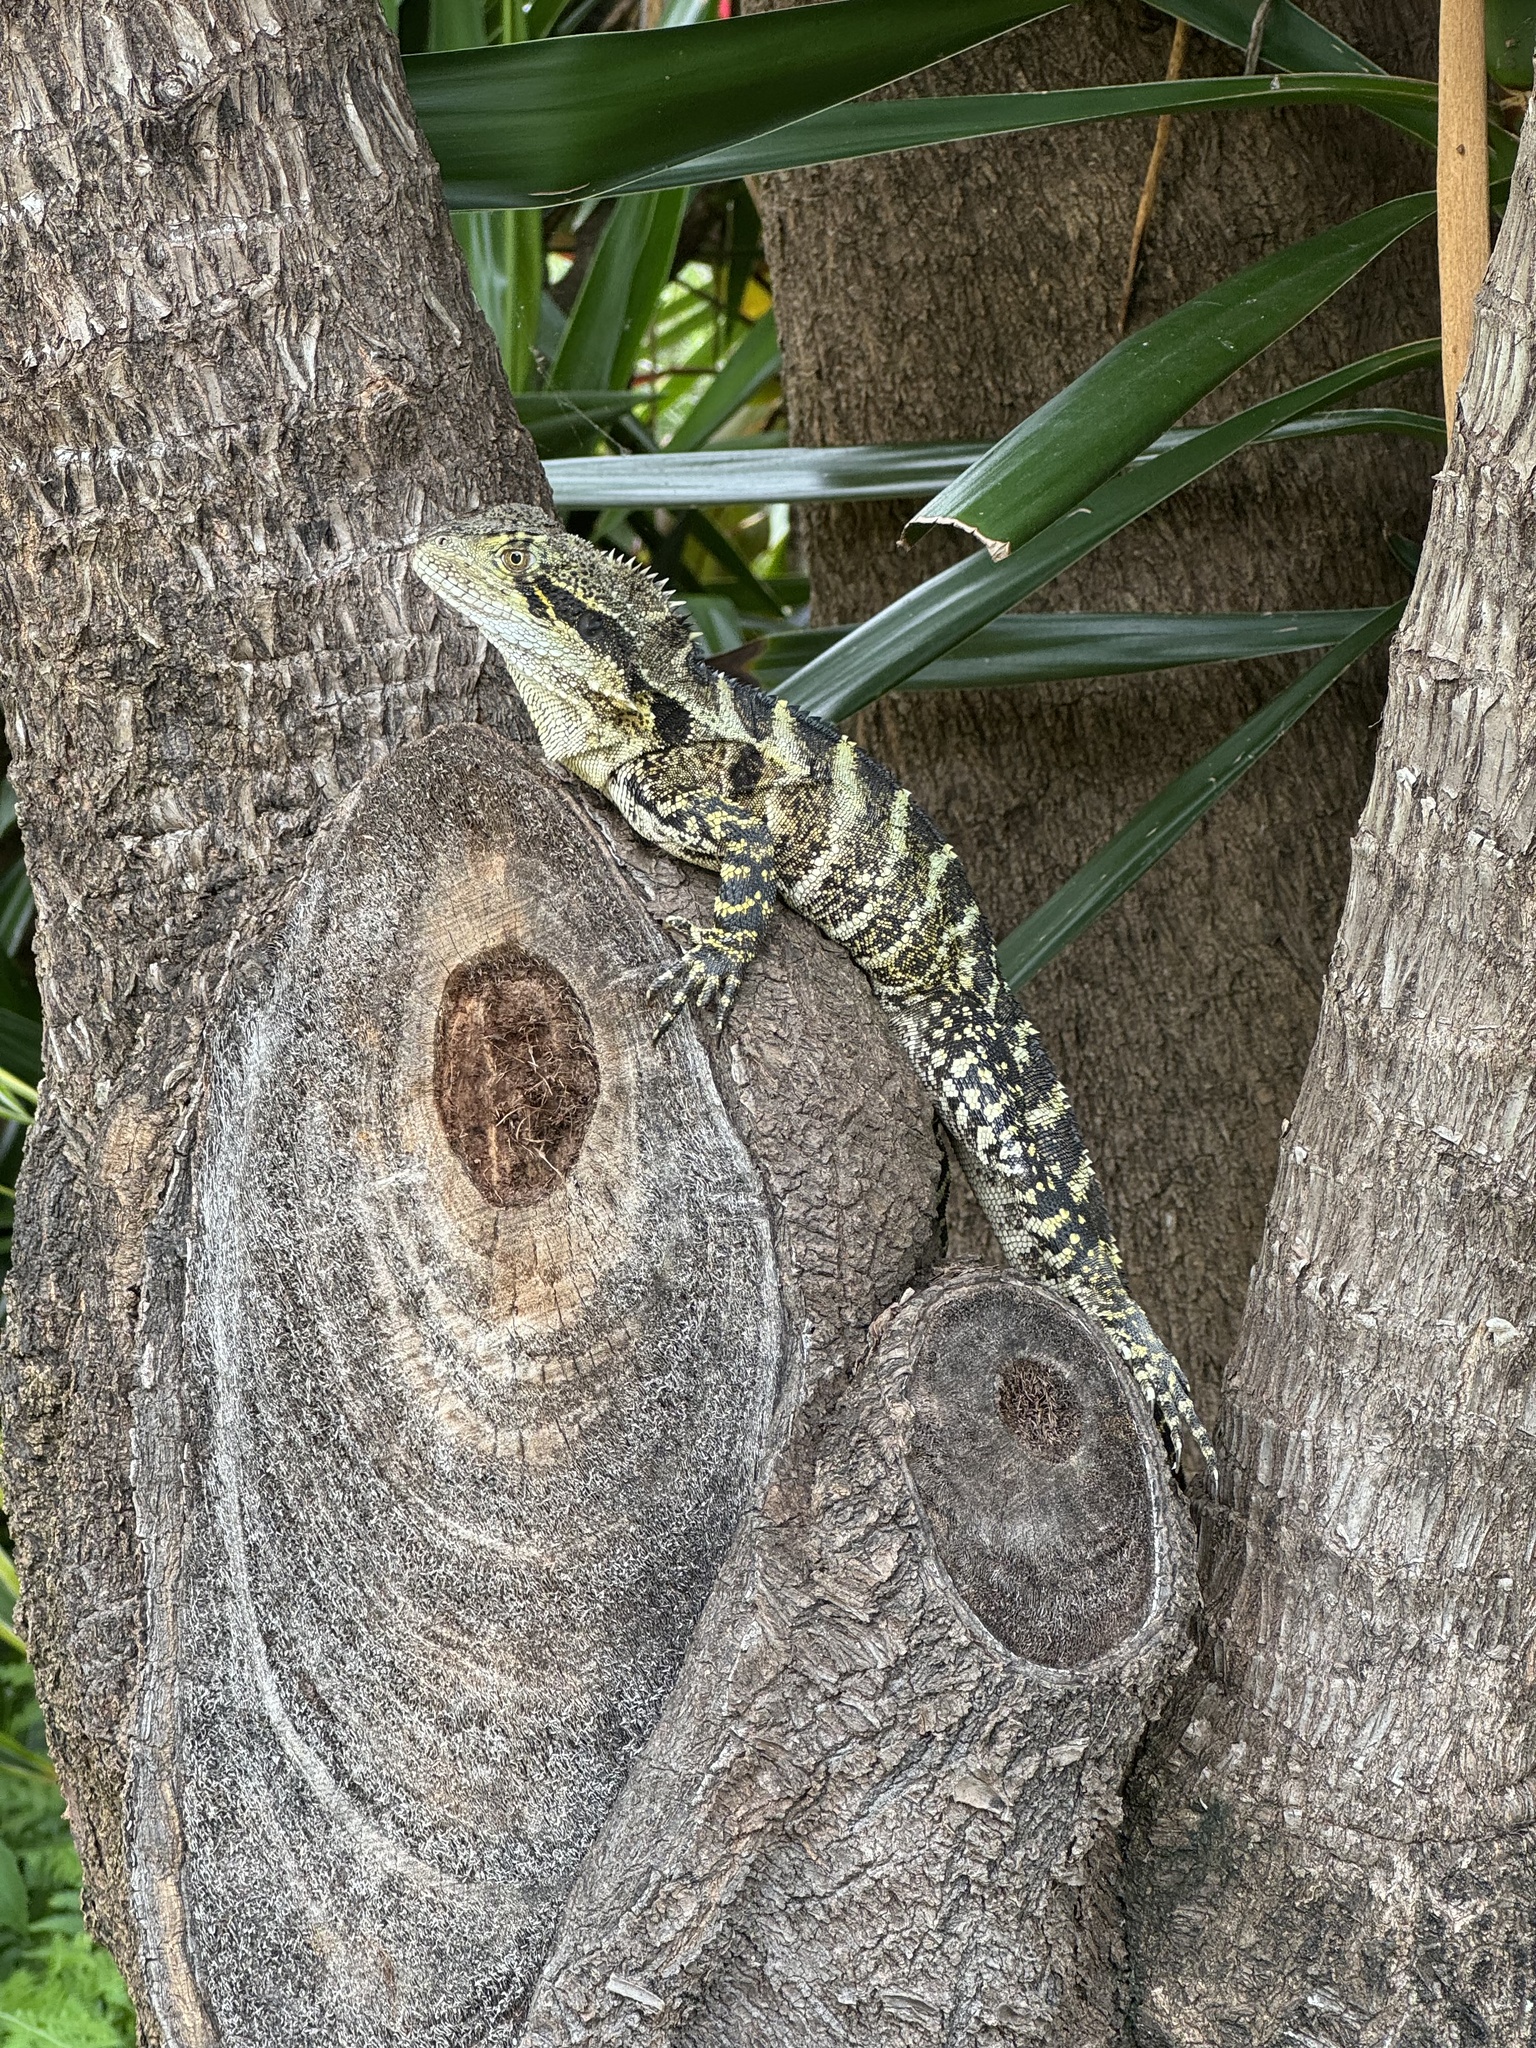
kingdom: Animalia
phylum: Chordata
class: Squamata
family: Agamidae
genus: Intellagama
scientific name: Intellagama lesueurii
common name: Eastern water dragon
